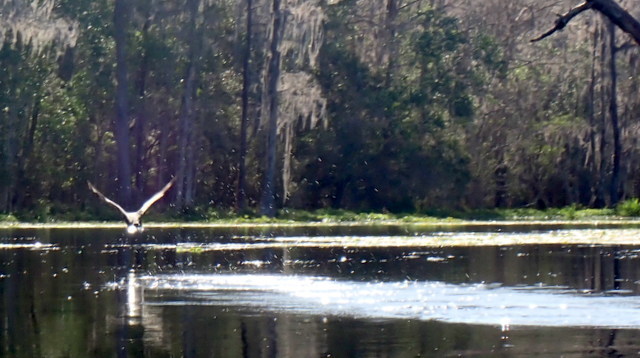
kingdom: Animalia
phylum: Chordata
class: Aves
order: Suliformes
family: Phalacrocoracidae
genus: Phalacrocorax
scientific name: Phalacrocorax auritus
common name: Double-crested cormorant
